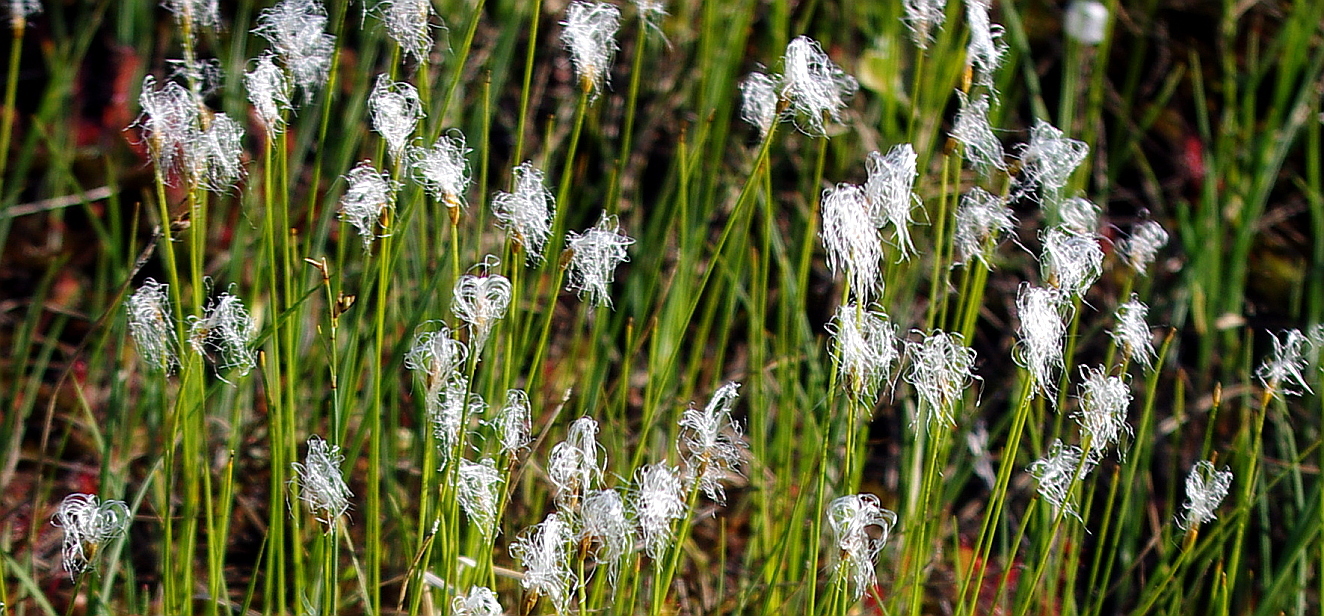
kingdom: Plantae
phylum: Tracheophyta
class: Liliopsida
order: Poales
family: Cyperaceae
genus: Trichophorum
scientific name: Trichophorum alpinum
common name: Alpine bulrush
